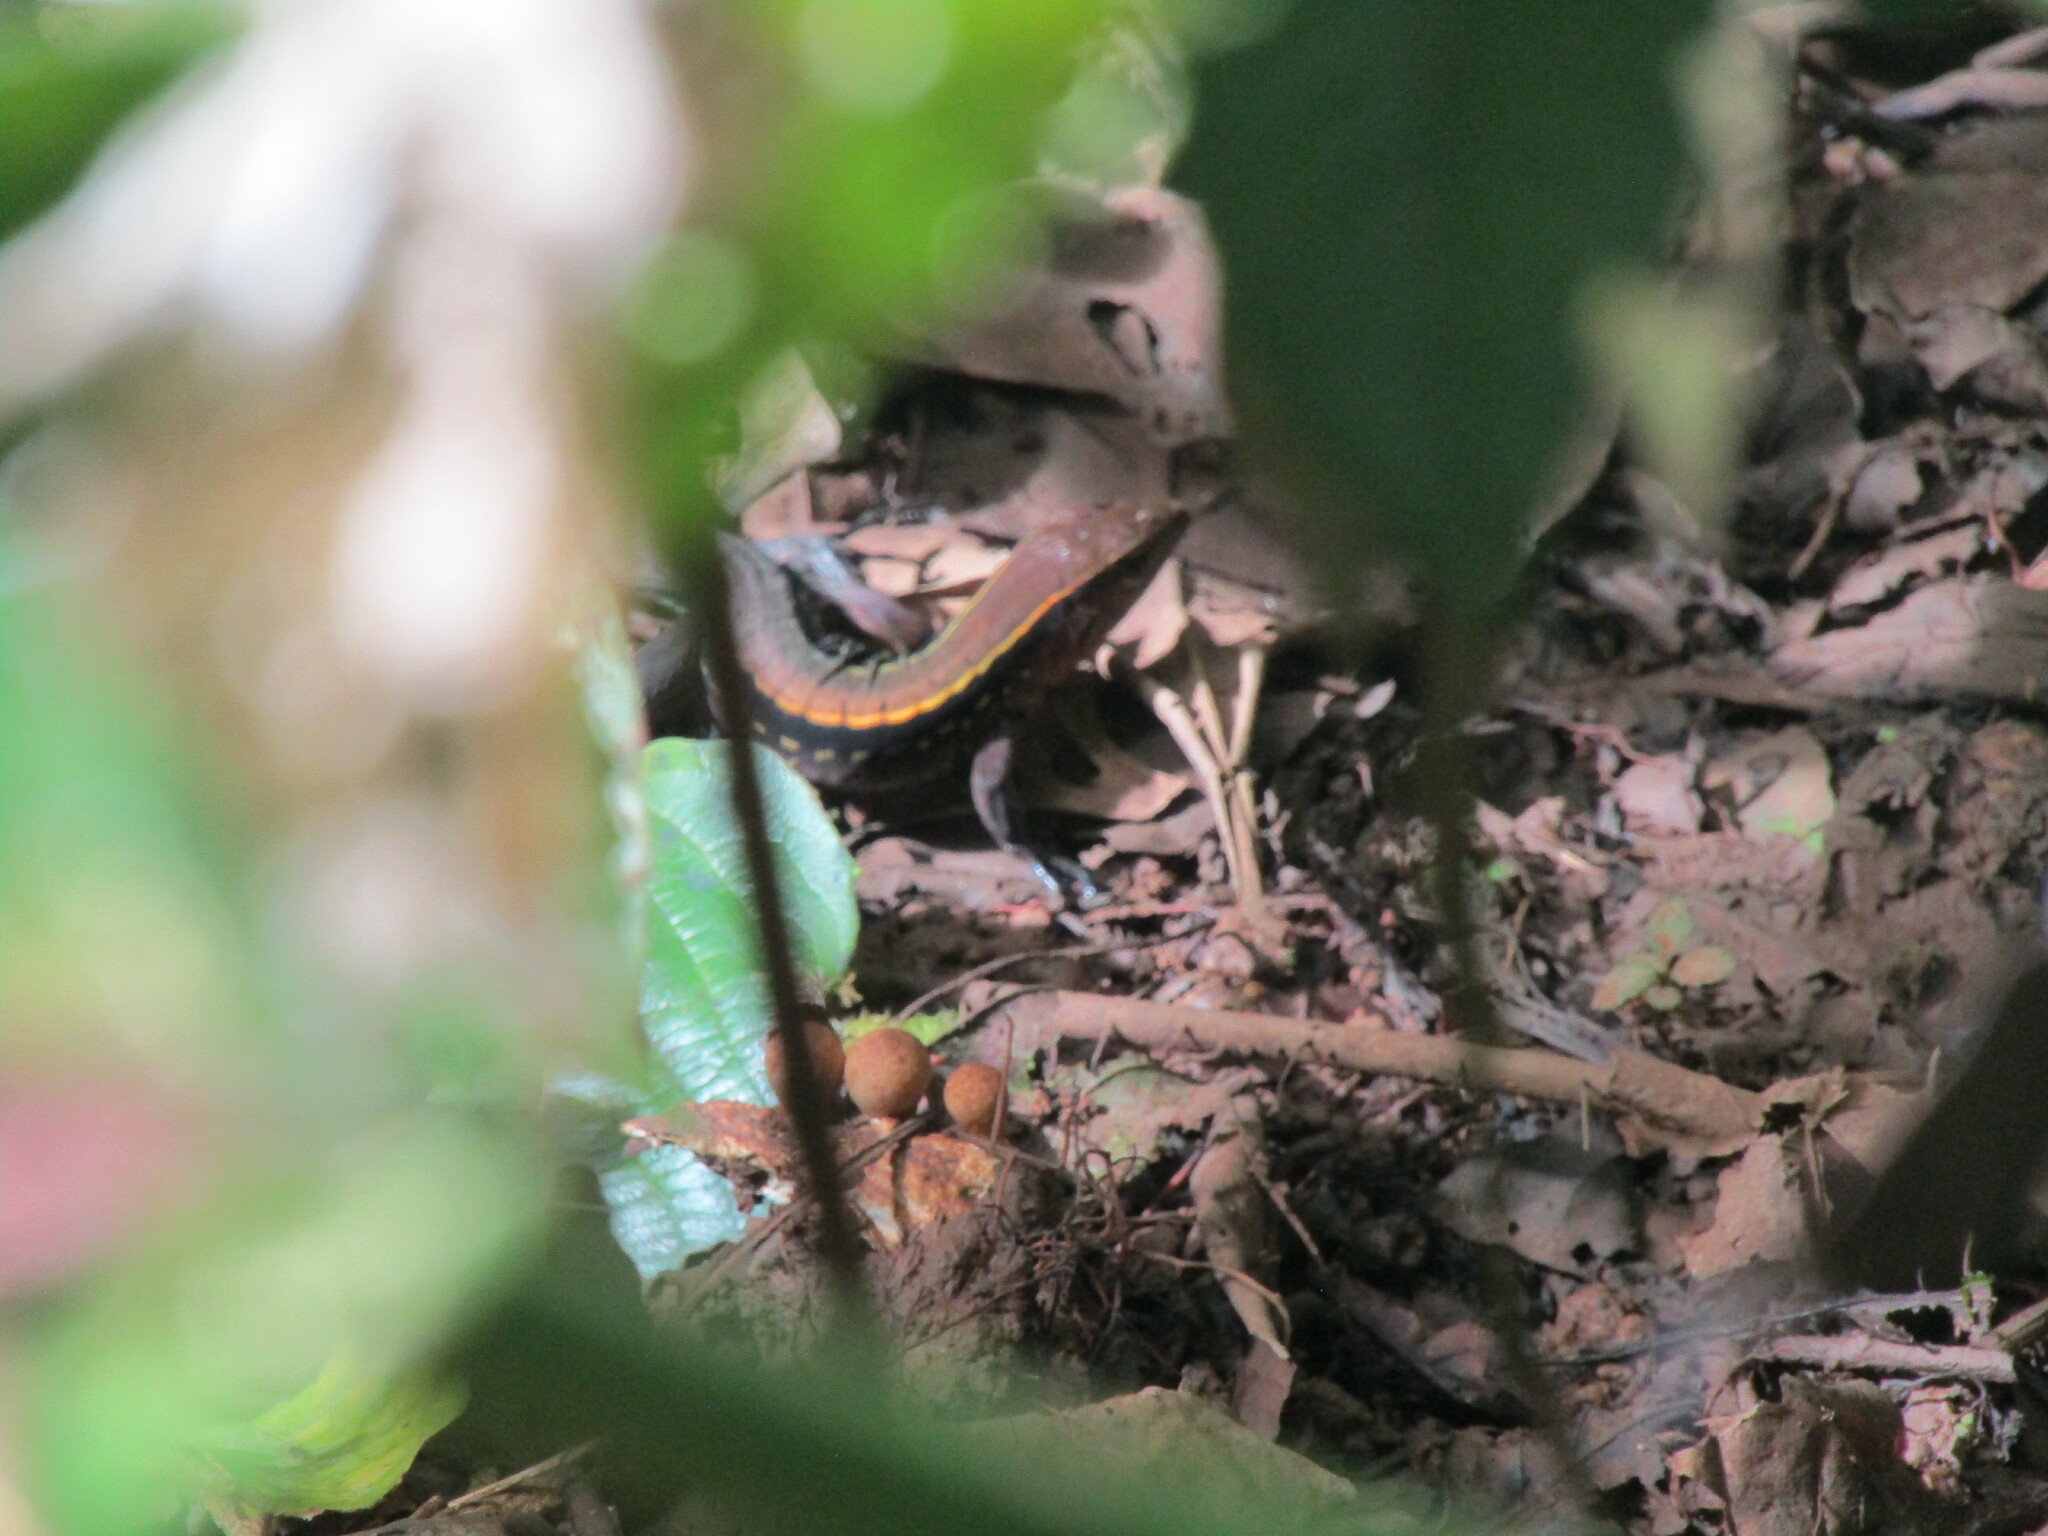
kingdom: Animalia
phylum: Chordata
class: Squamata
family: Teiidae
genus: Holcosus
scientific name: Holcosus leptophrys
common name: Delicate ameiva
